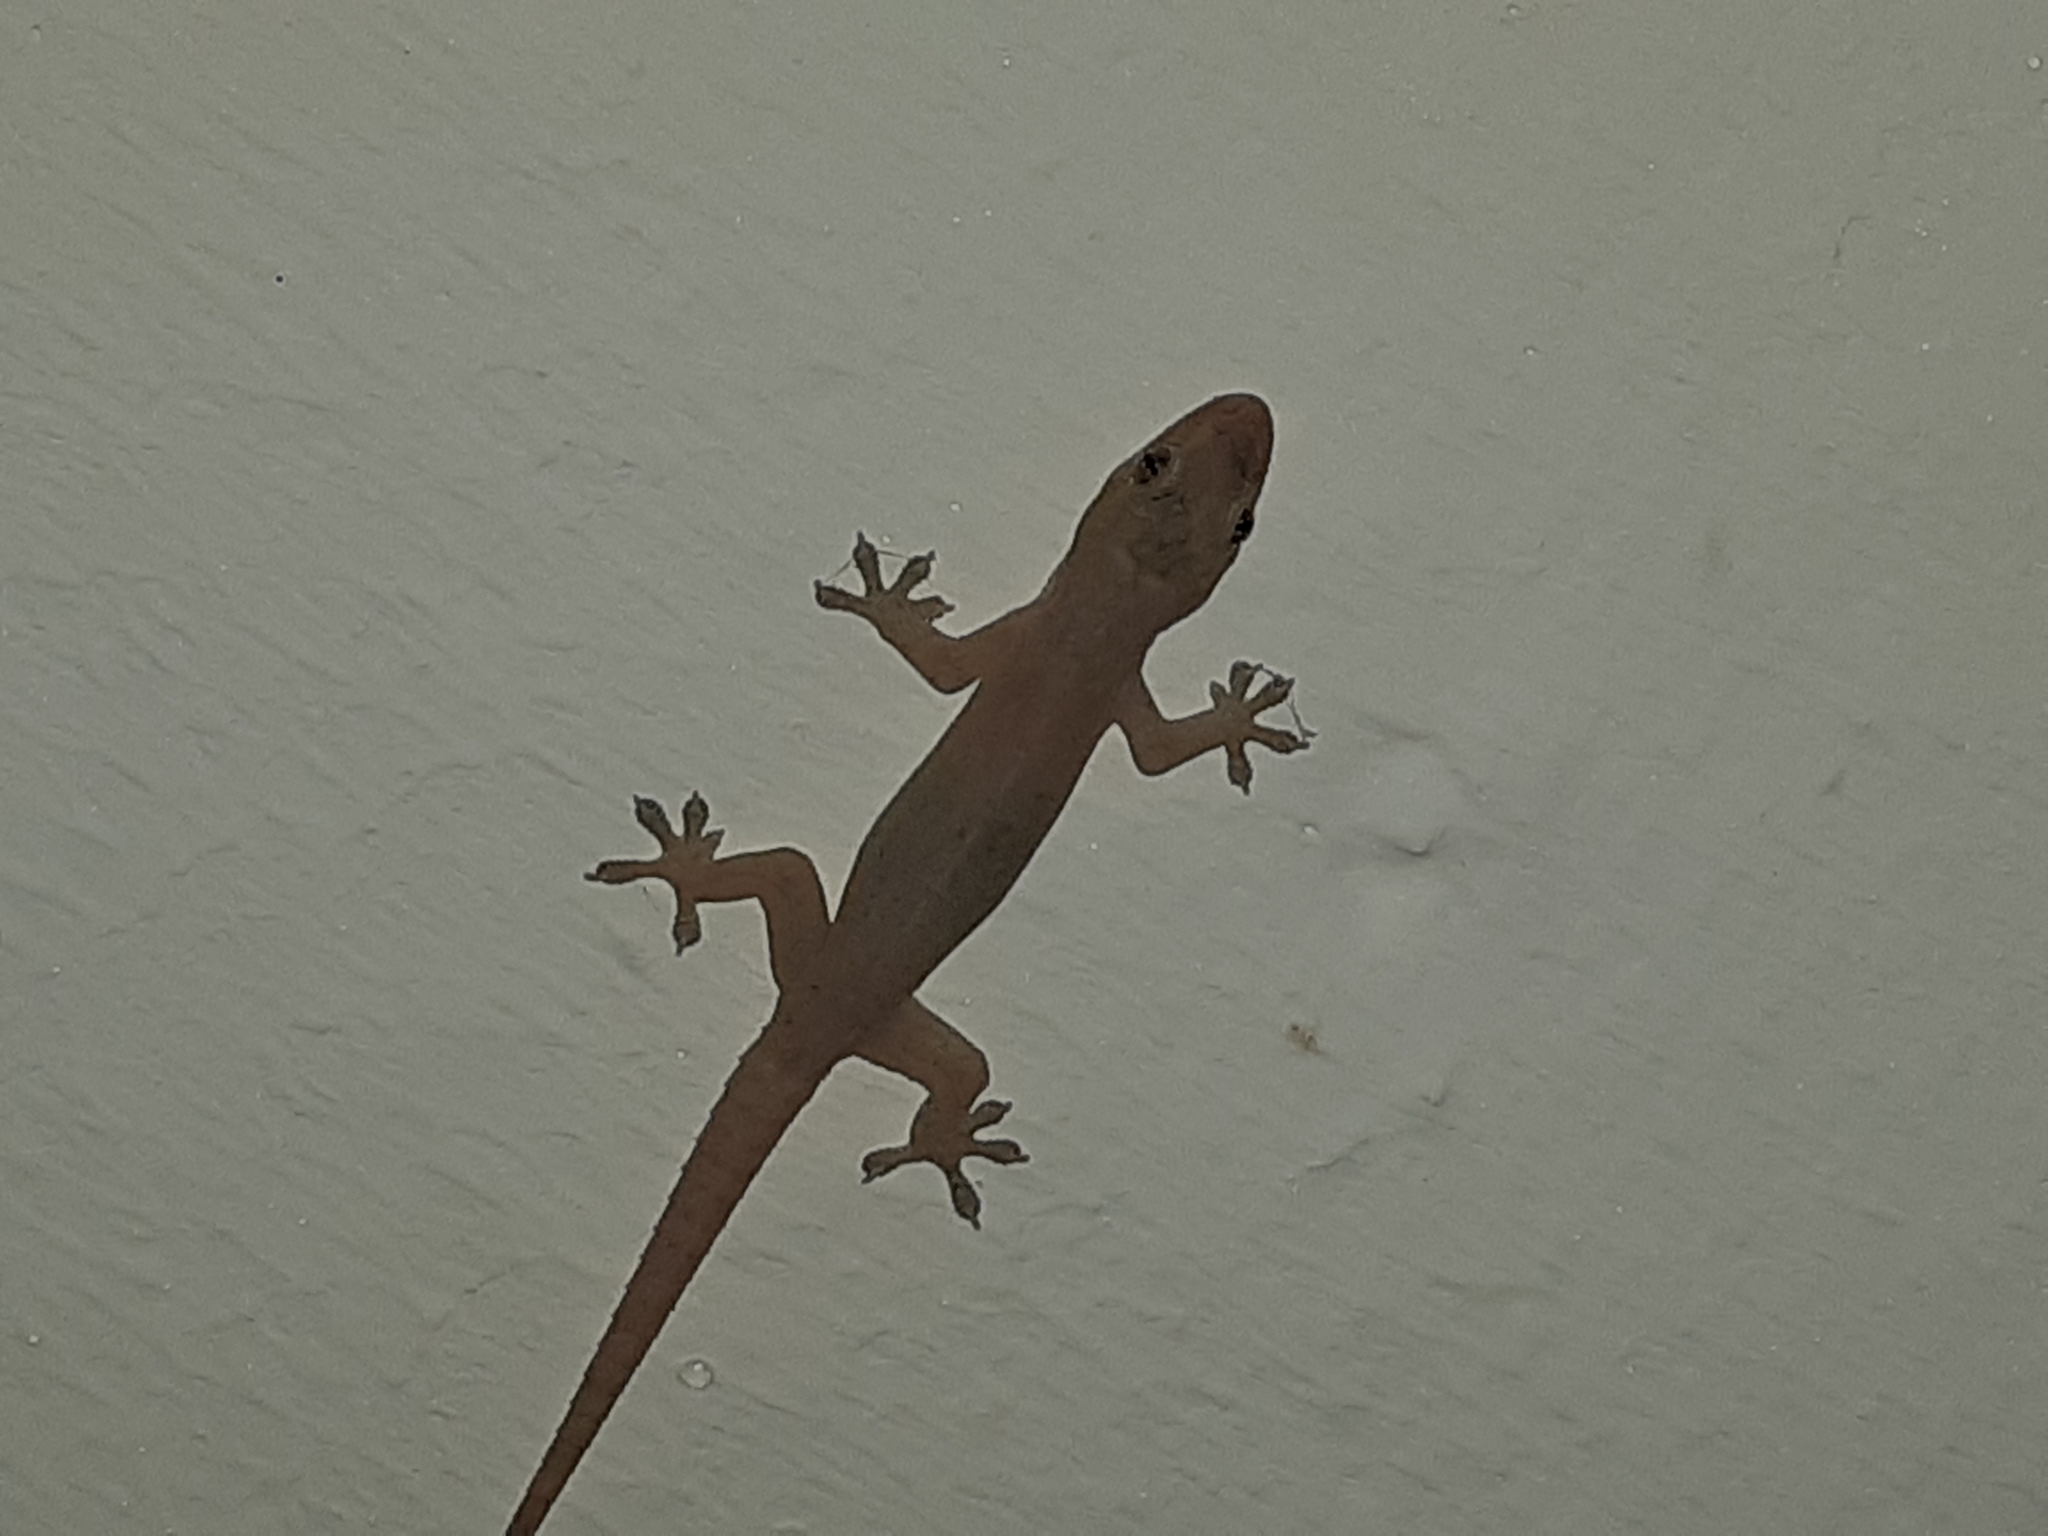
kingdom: Animalia
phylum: Chordata
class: Squamata
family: Gekkonidae
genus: Hemidactylus
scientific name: Hemidactylus frenatus
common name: Common house gecko
